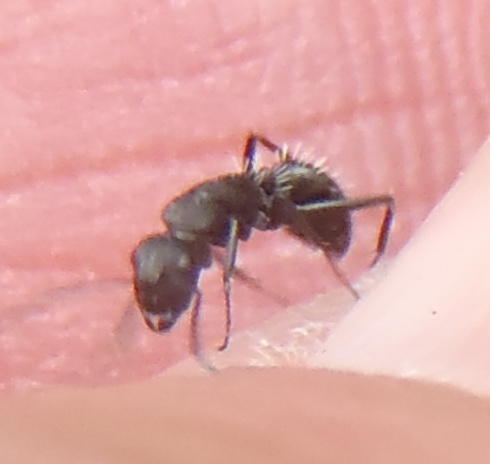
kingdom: Animalia
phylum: Arthropoda
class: Insecta
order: Hymenoptera
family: Formicidae
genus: Camponotus
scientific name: Camponotus niveosetosus
